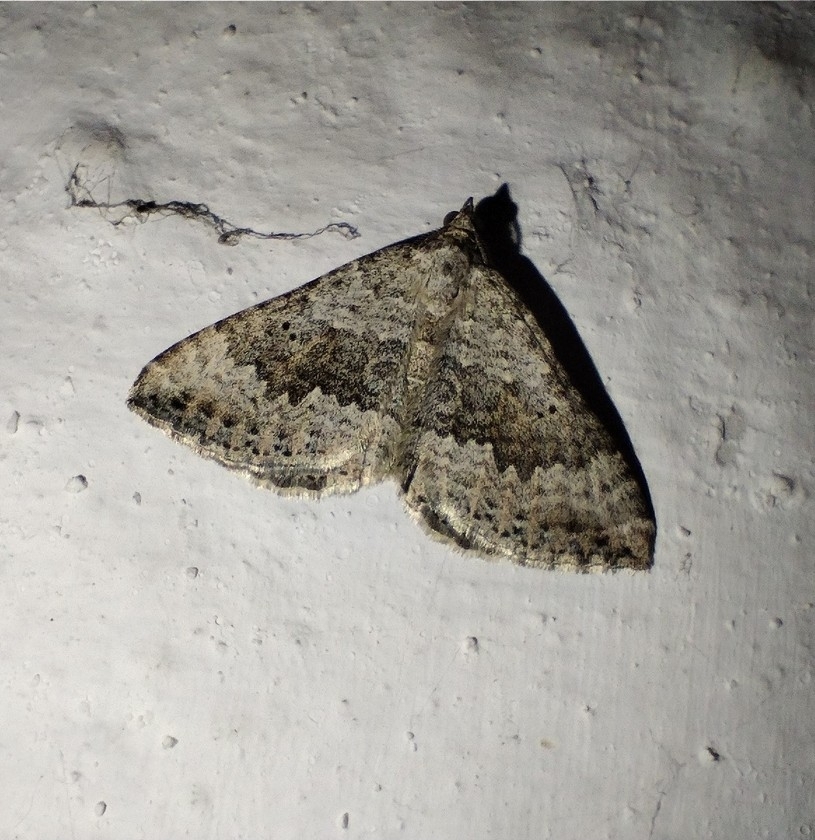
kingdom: Animalia
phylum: Arthropoda
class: Insecta
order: Lepidoptera
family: Geometridae
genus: Scotopteryx
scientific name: Scotopteryx bipunctaria
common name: Chalk carpet
